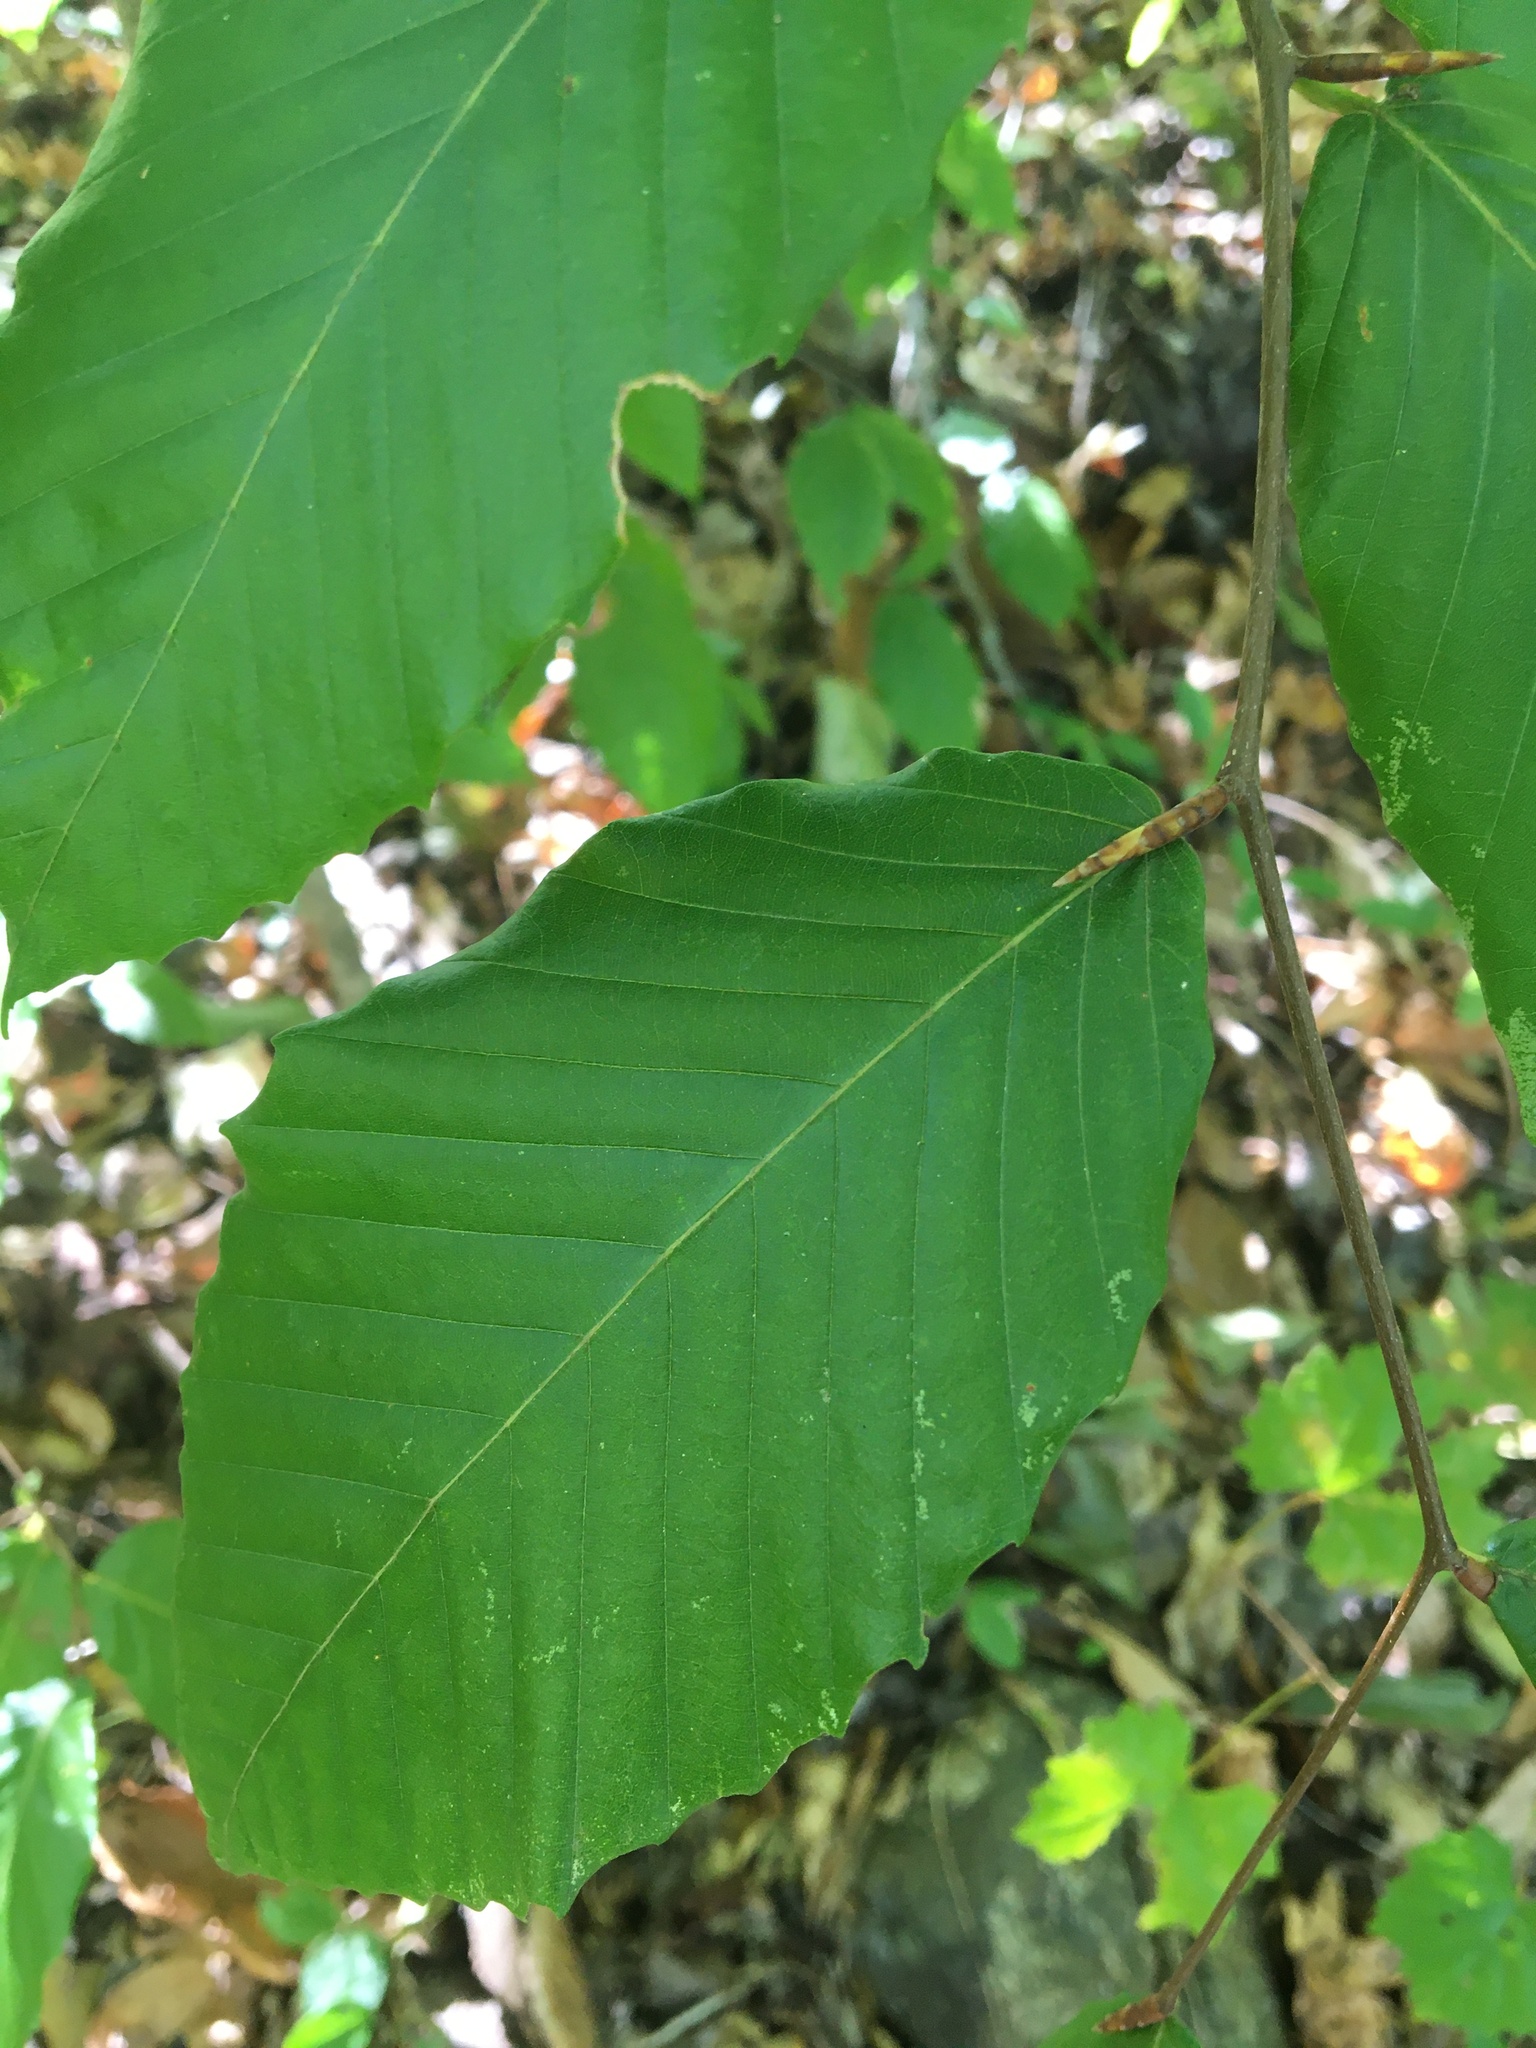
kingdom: Plantae
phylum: Tracheophyta
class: Magnoliopsida
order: Fagales
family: Fagaceae
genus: Fagus
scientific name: Fagus grandifolia
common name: American beech
